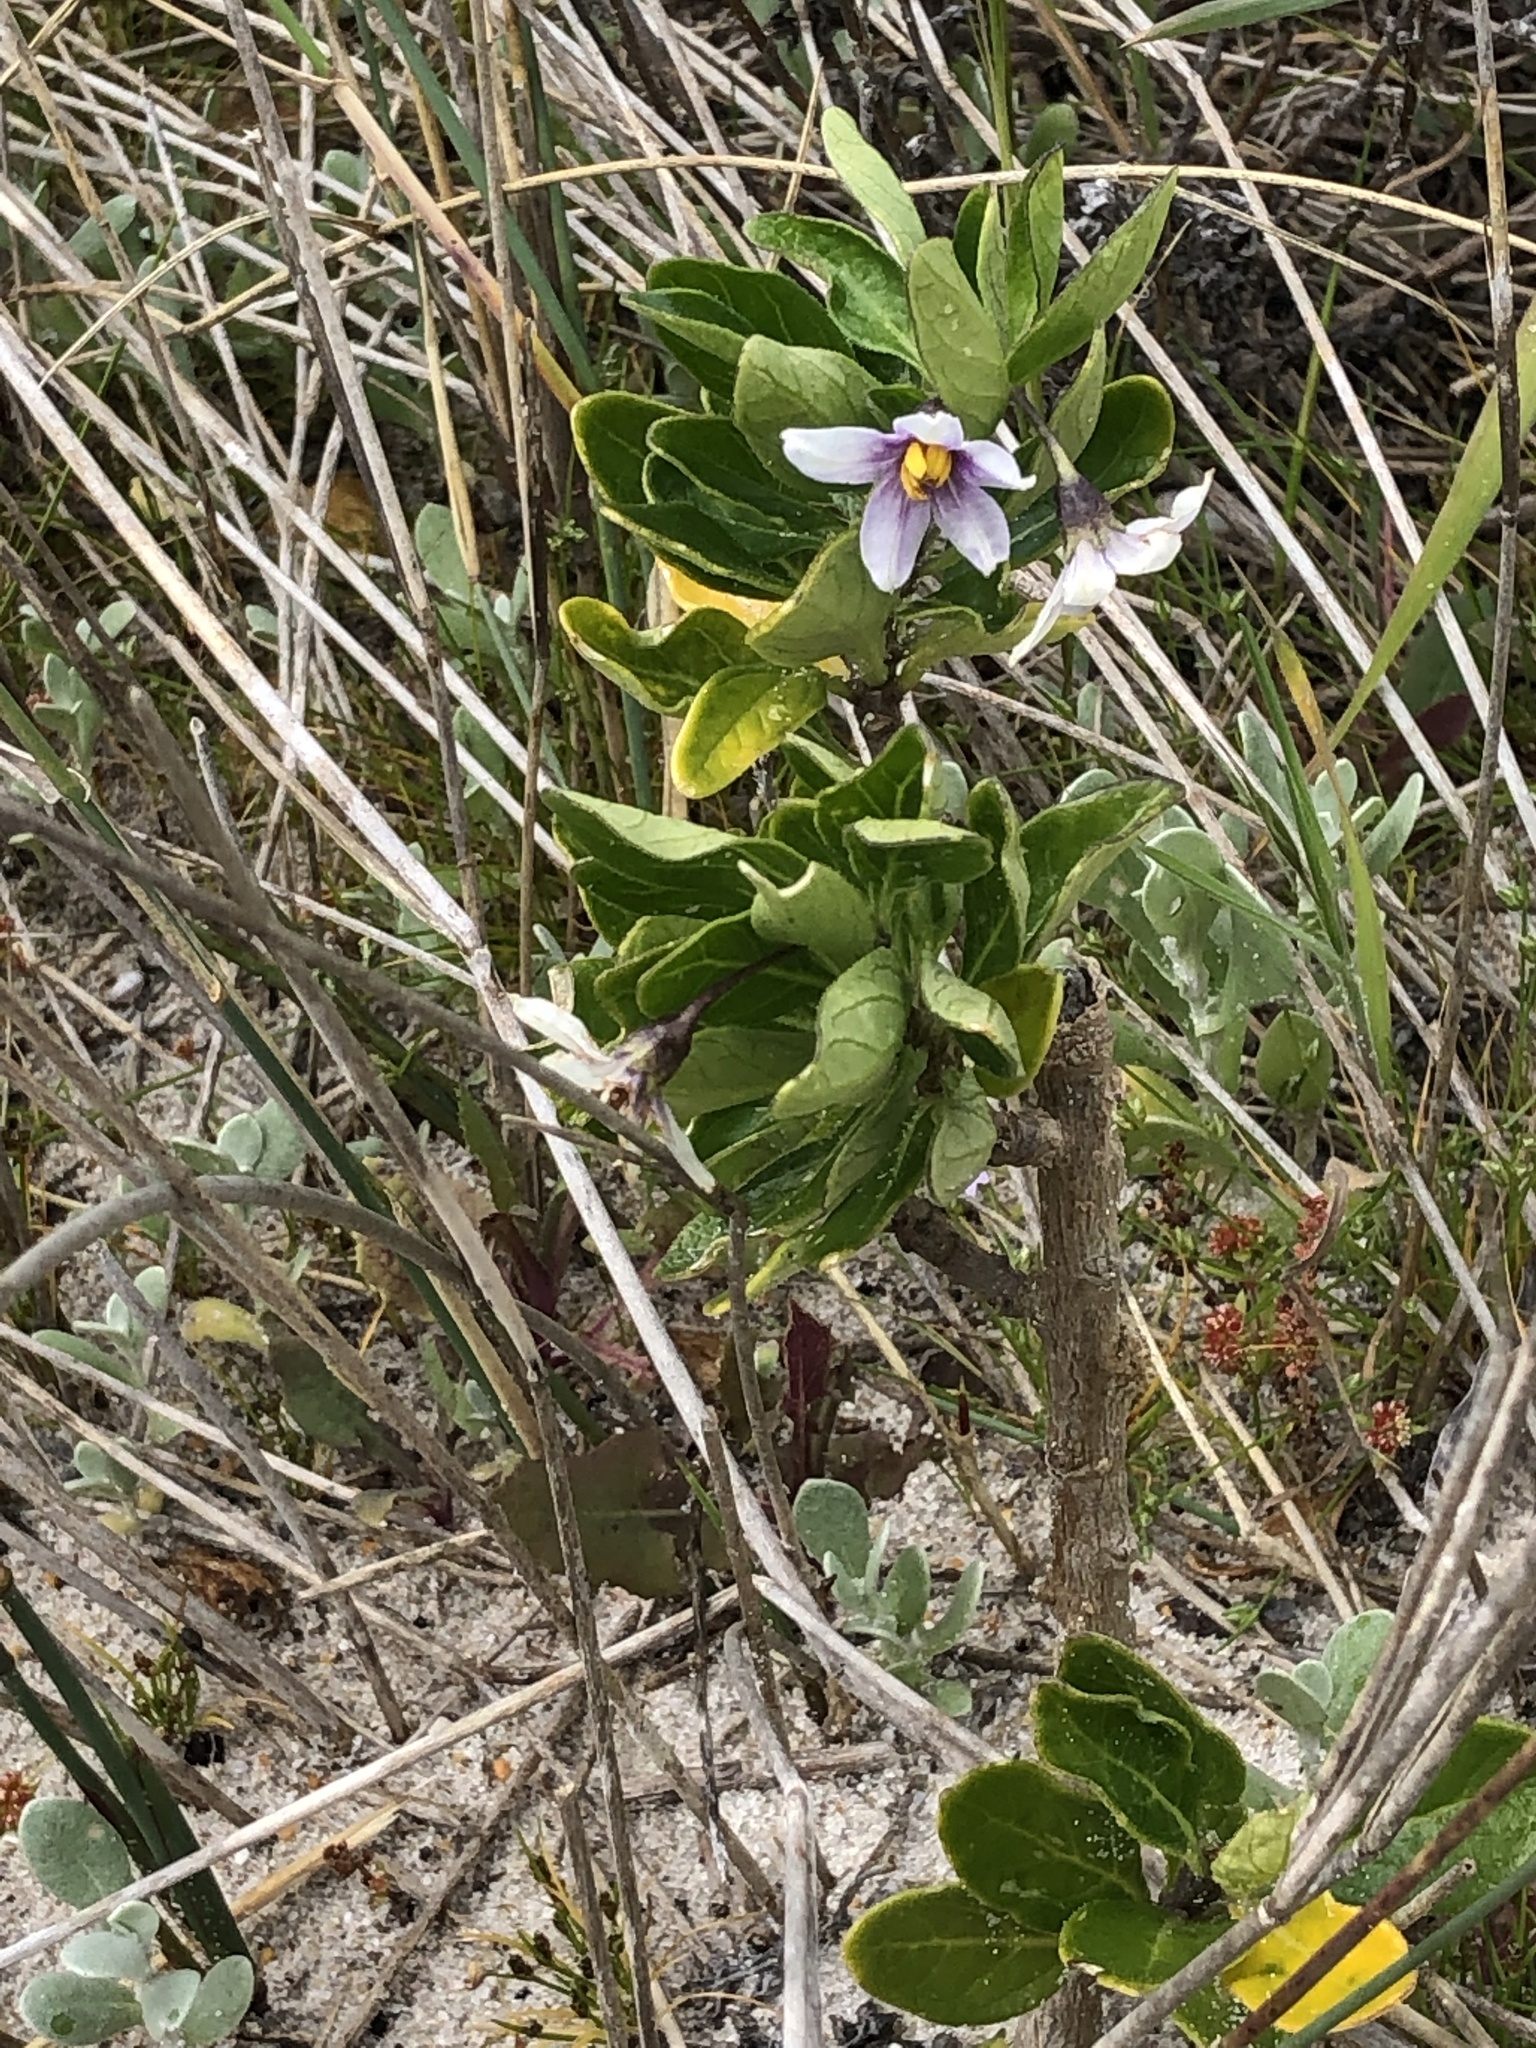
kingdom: Plantae
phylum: Tracheophyta
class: Magnoliopsida
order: Solanales
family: Solanaceae
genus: Solanum
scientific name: Solanum guineense
